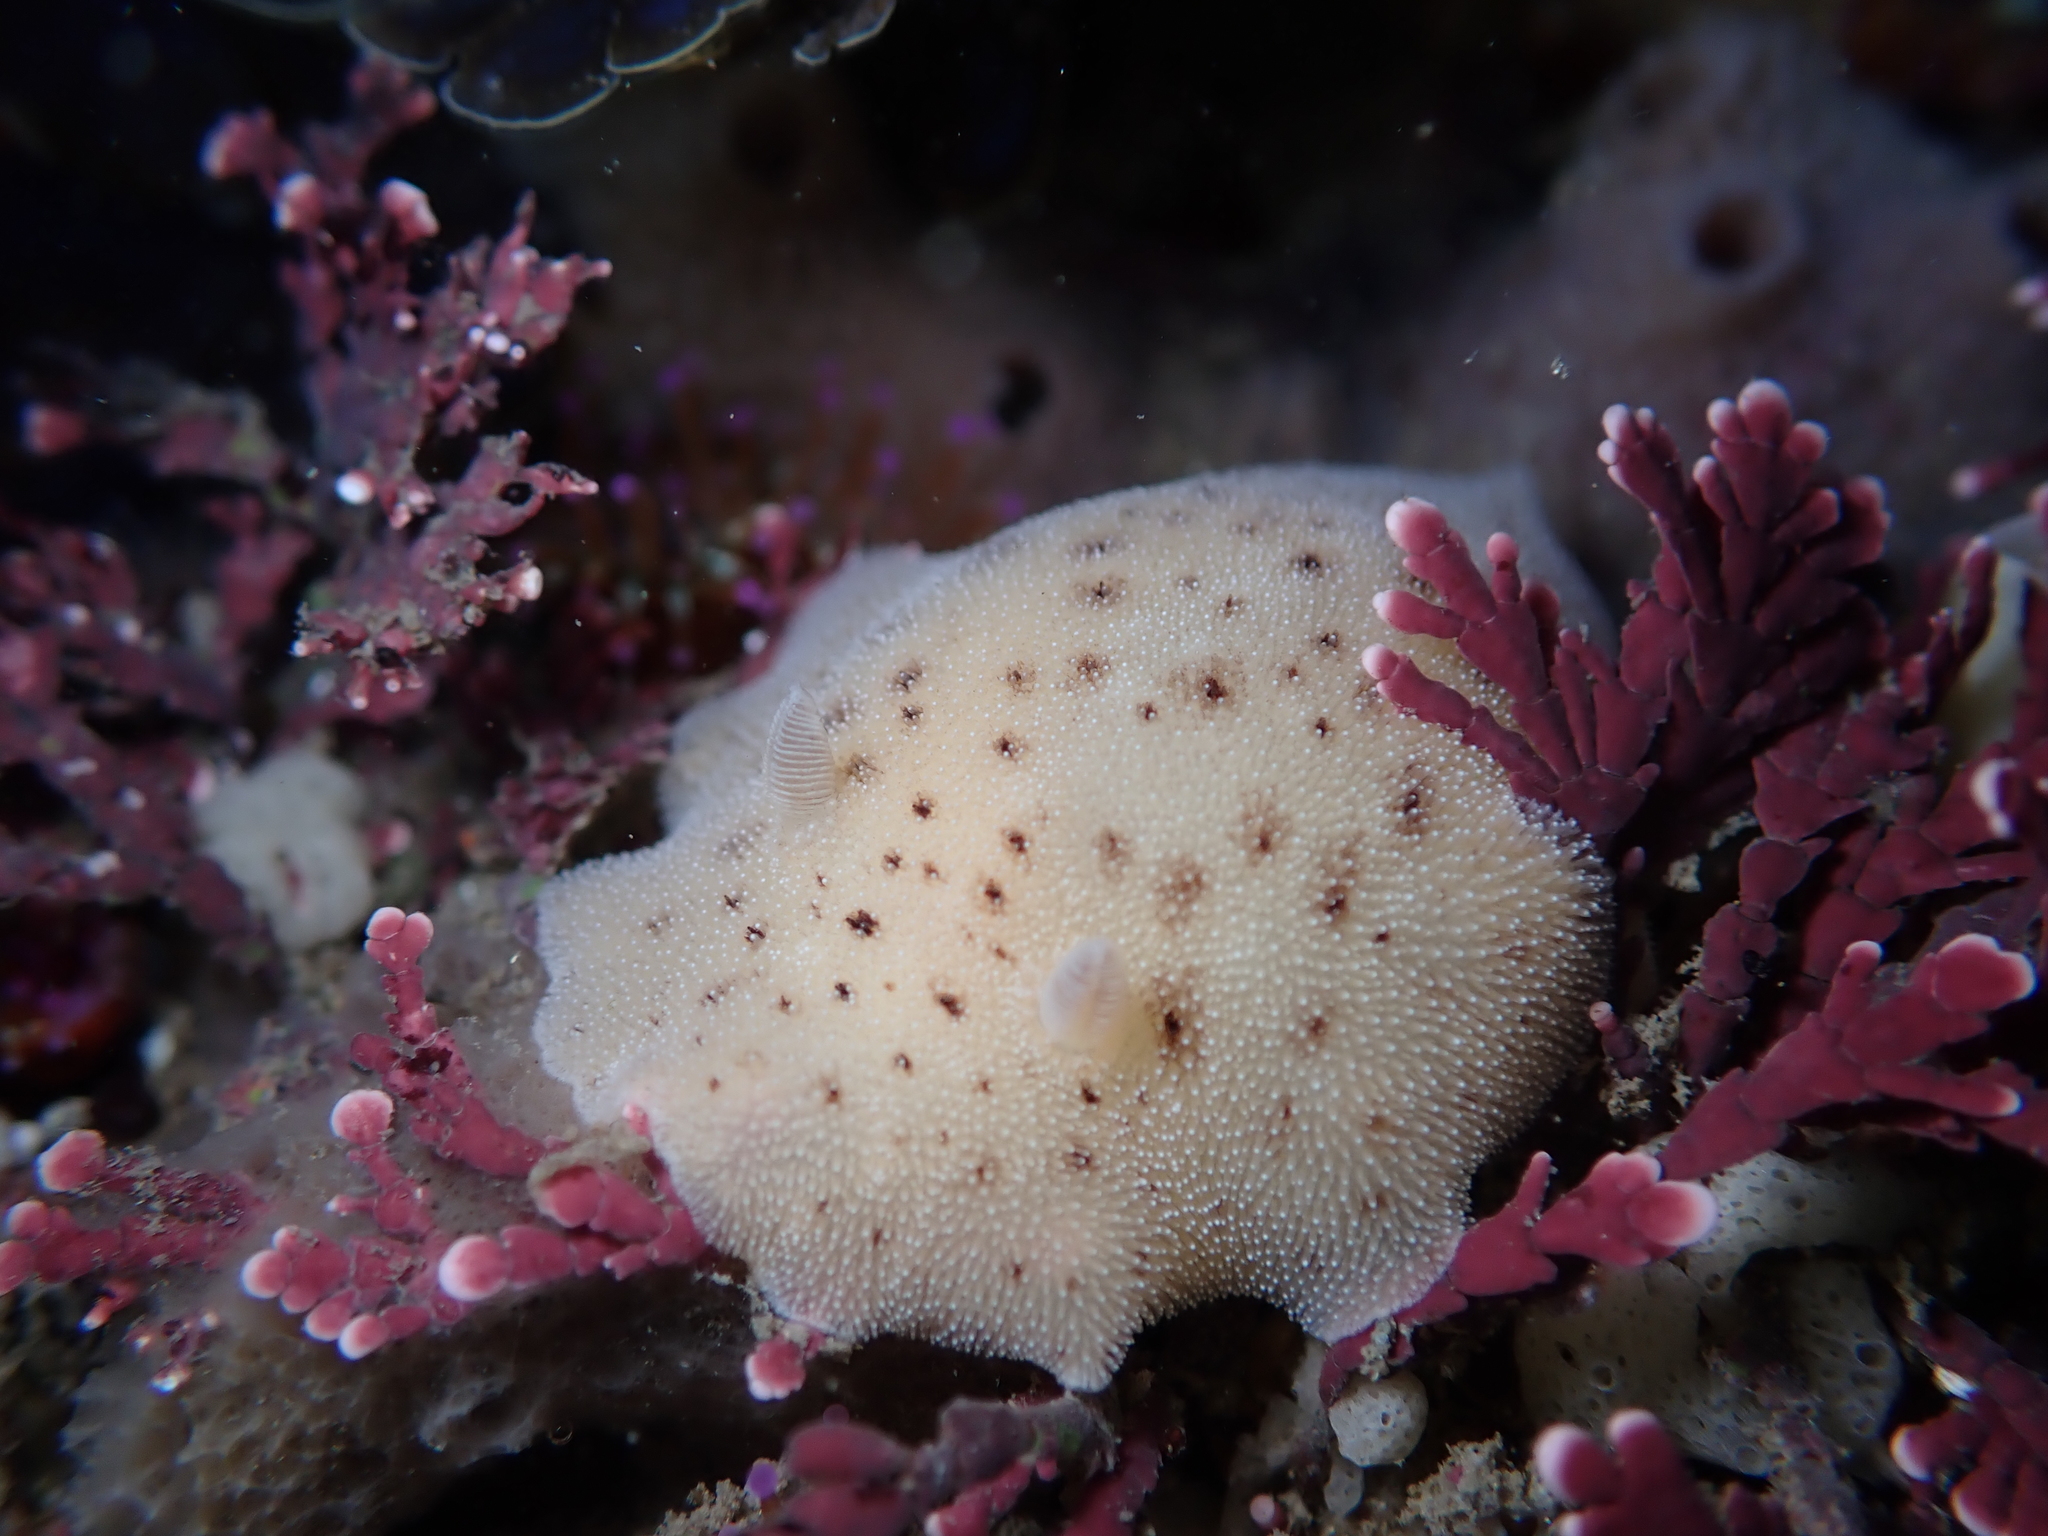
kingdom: Animalia
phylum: Mollusca
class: Gastropoda
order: Nudibranchia
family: Discodorididae
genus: Alloiodoris
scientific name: Alloiodoris lanuginata
